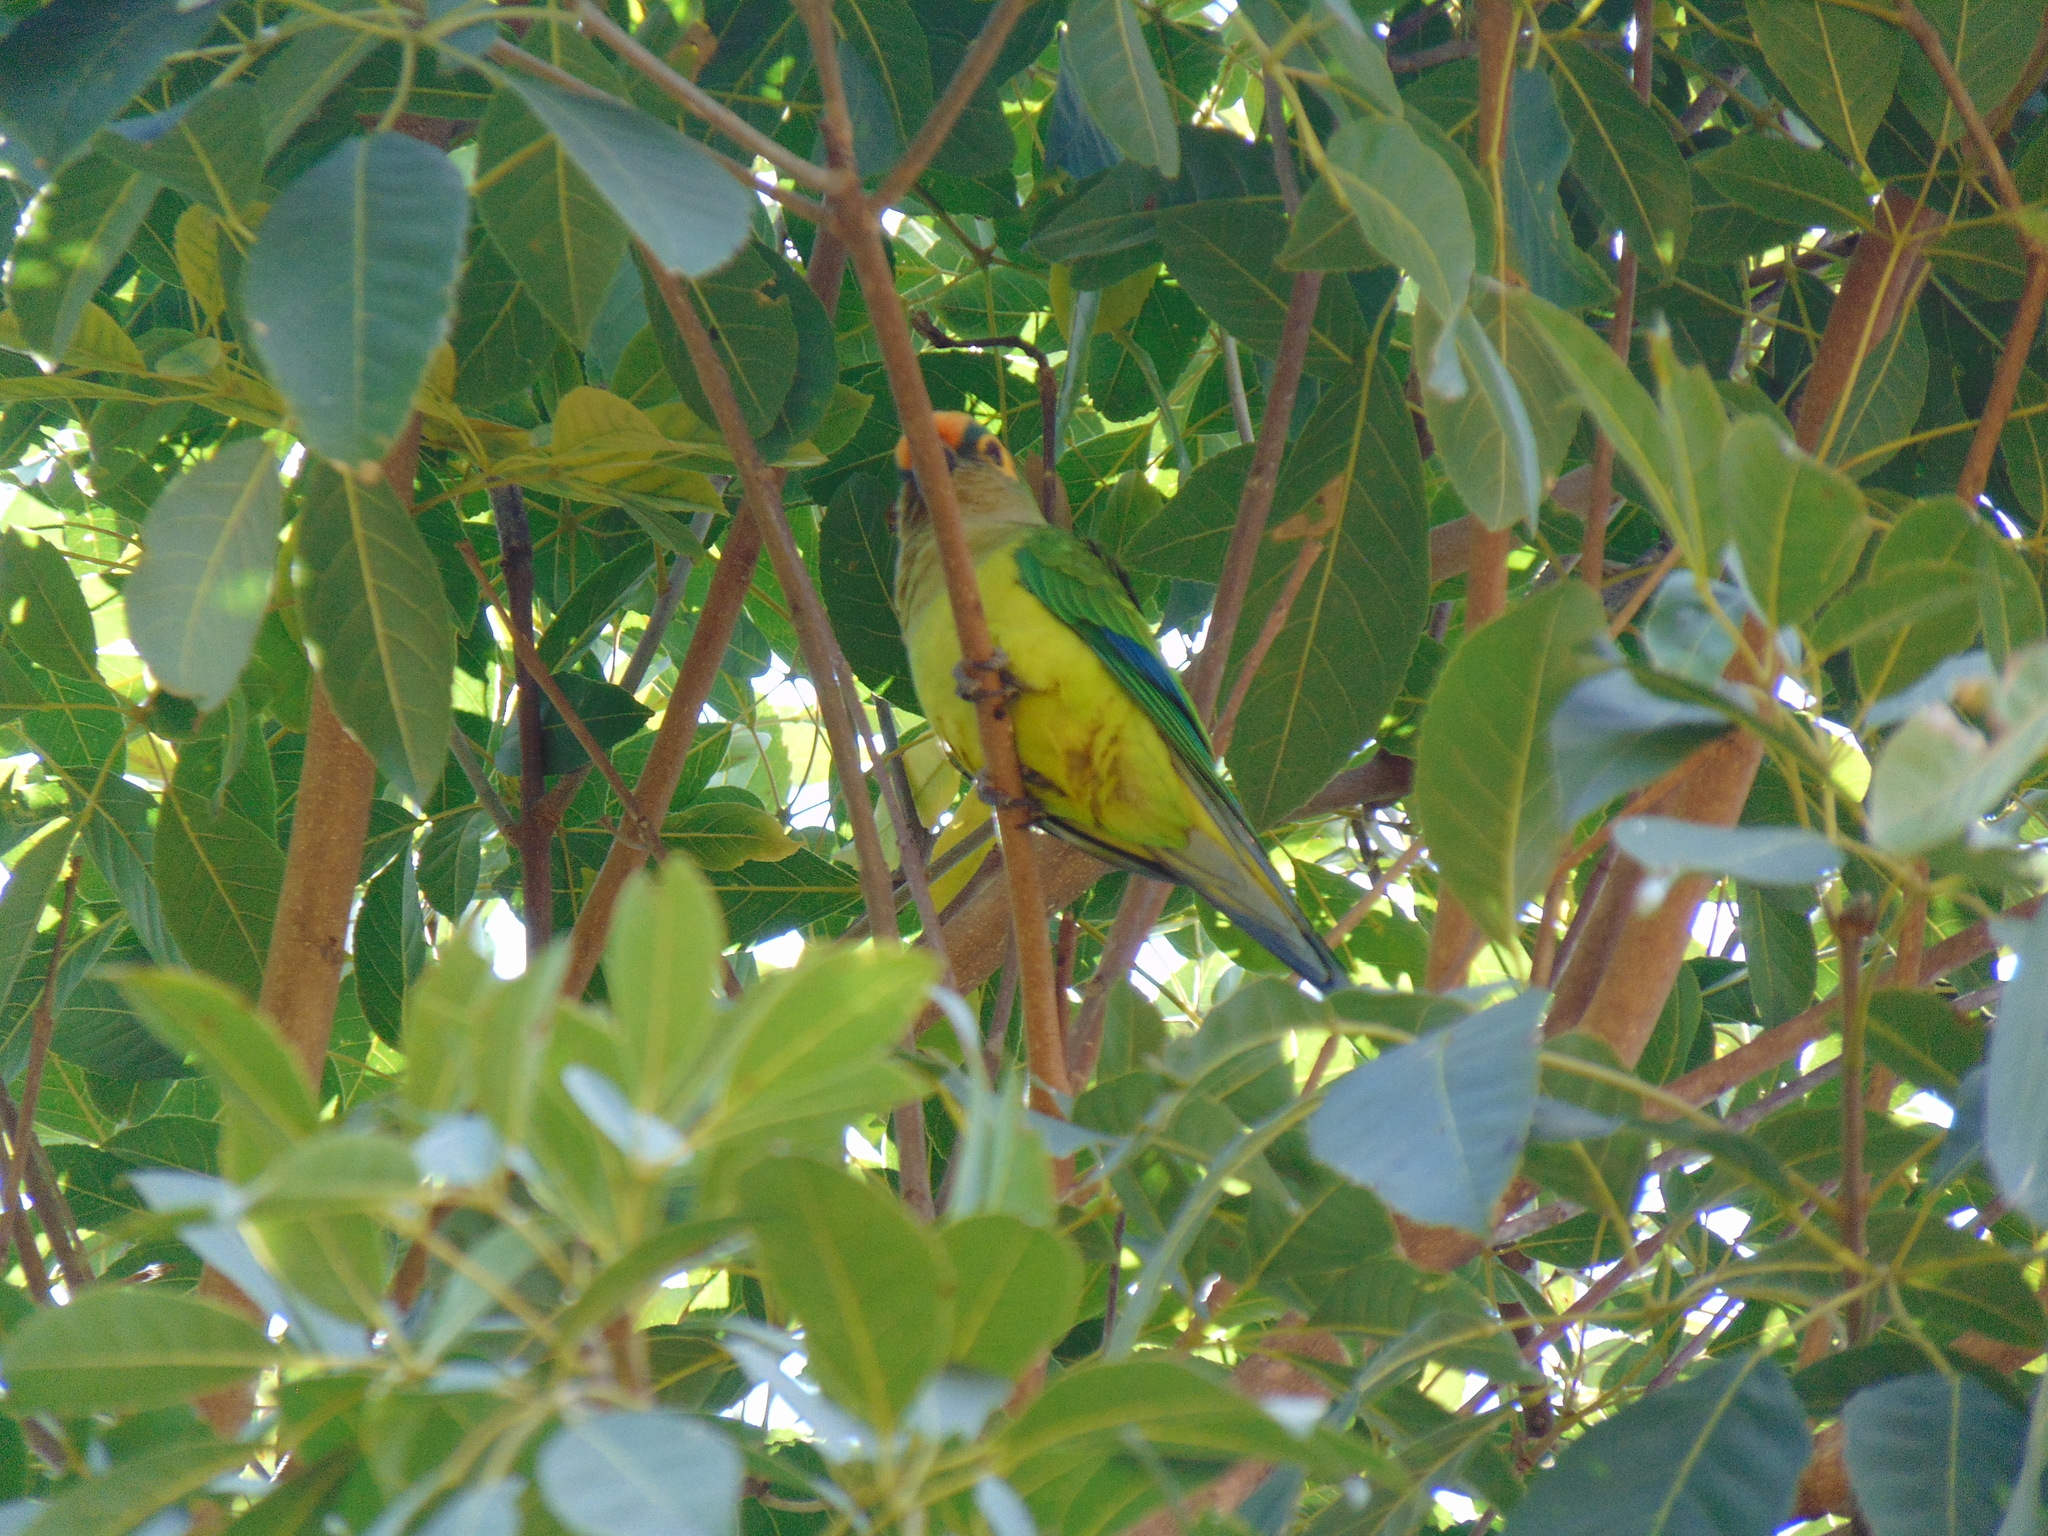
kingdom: Animalia
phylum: Chordata
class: Aves
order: Psittaciformes
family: Psittacidae
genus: Aratinga
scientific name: Aratinga aurea
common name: Peach-fronted parakeet
